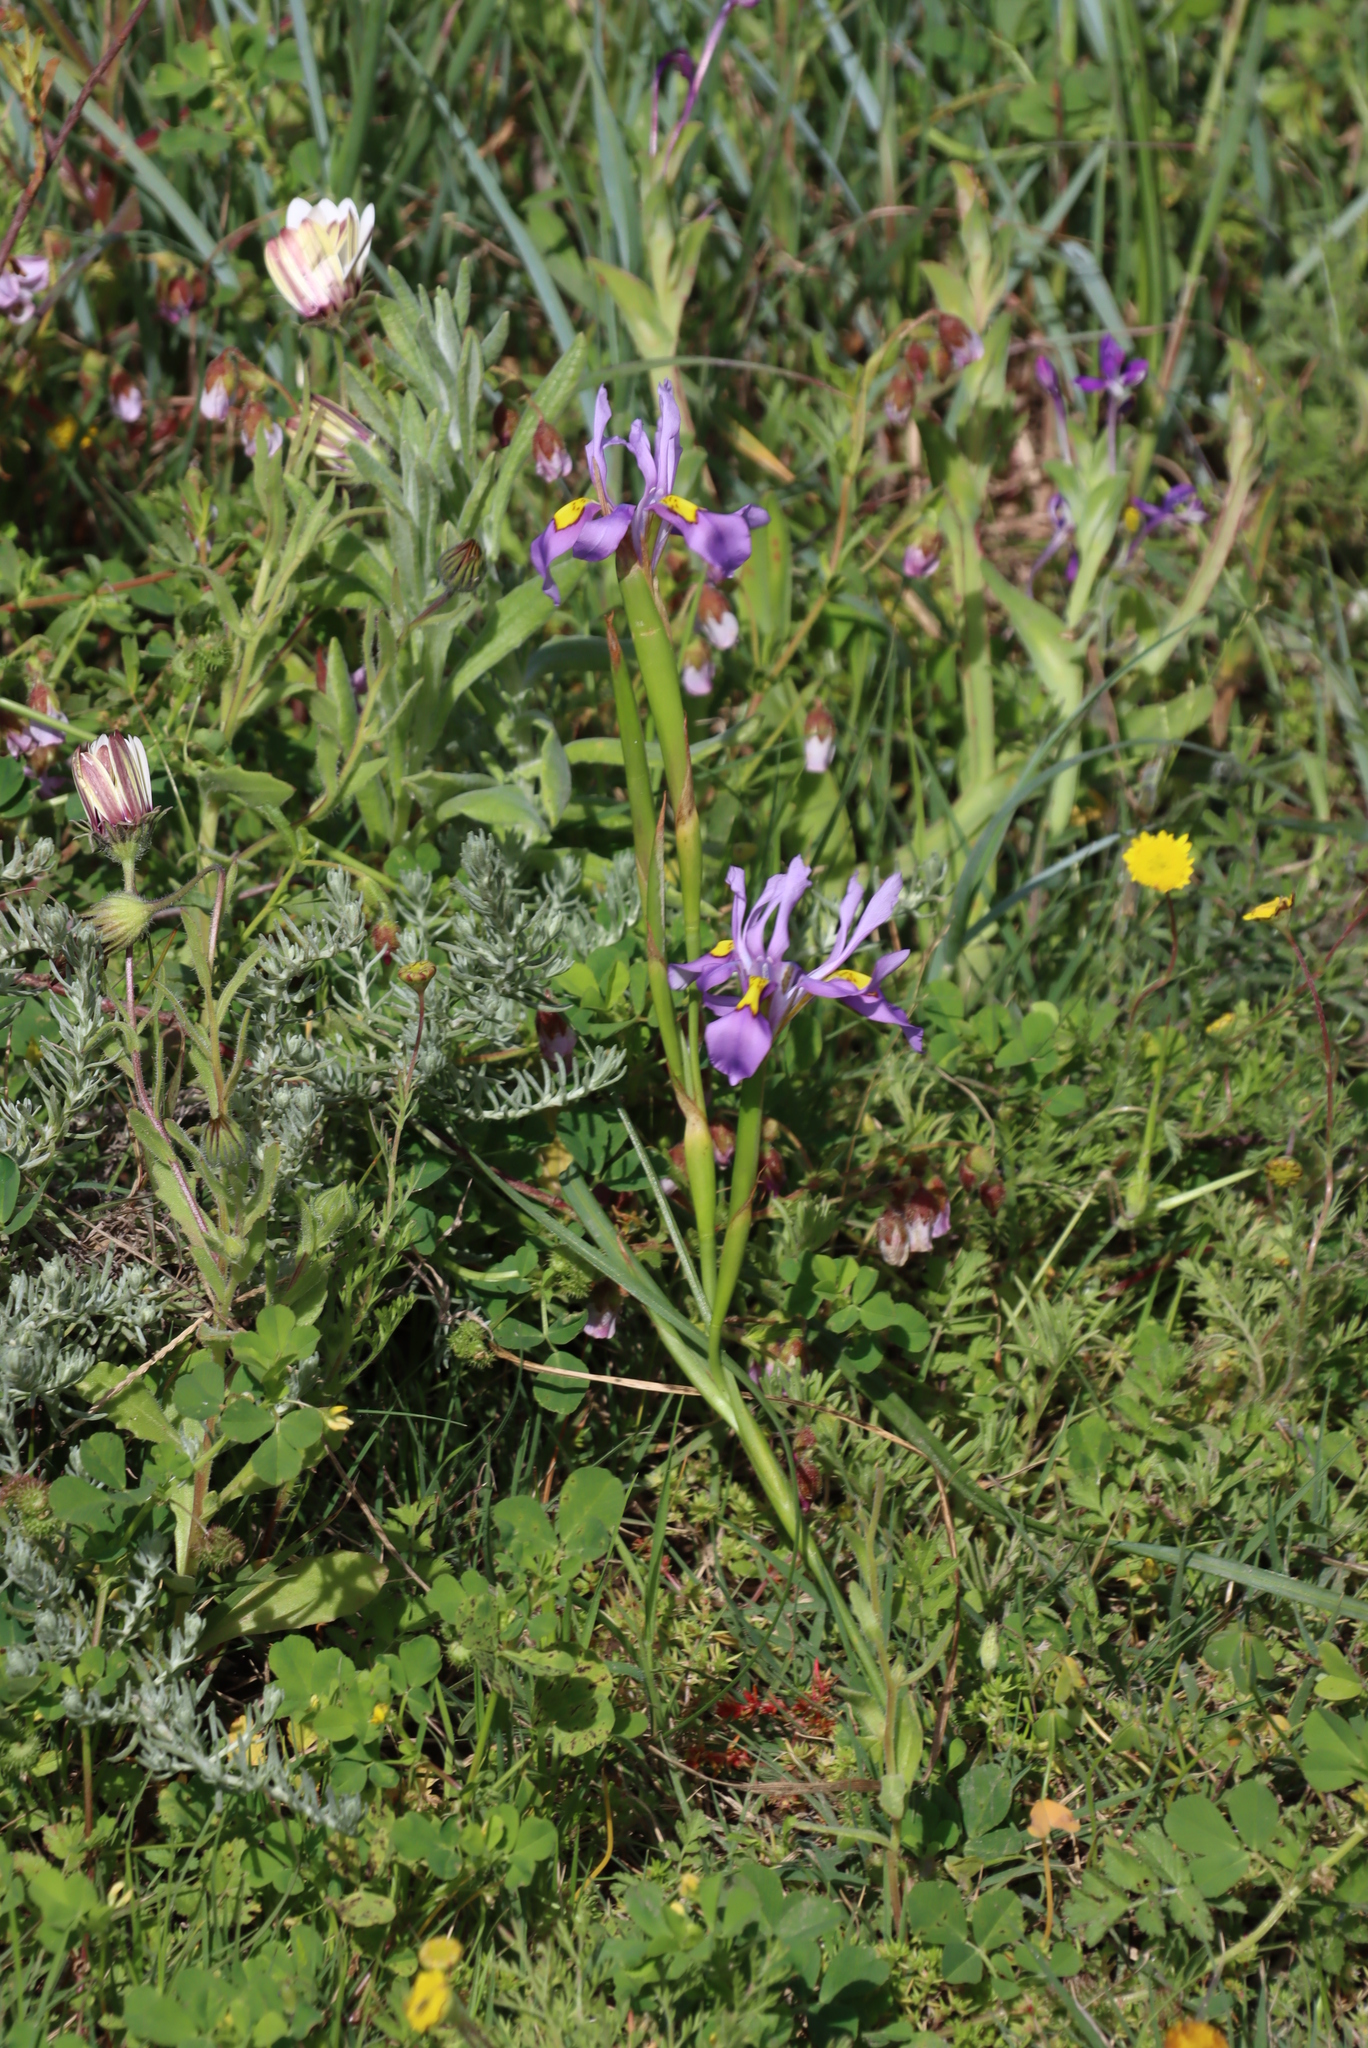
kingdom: Plantae
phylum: Tracheophyta
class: Liliopsida
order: Asparagales
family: Iridaceae
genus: Moraea
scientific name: Moraea fugax
